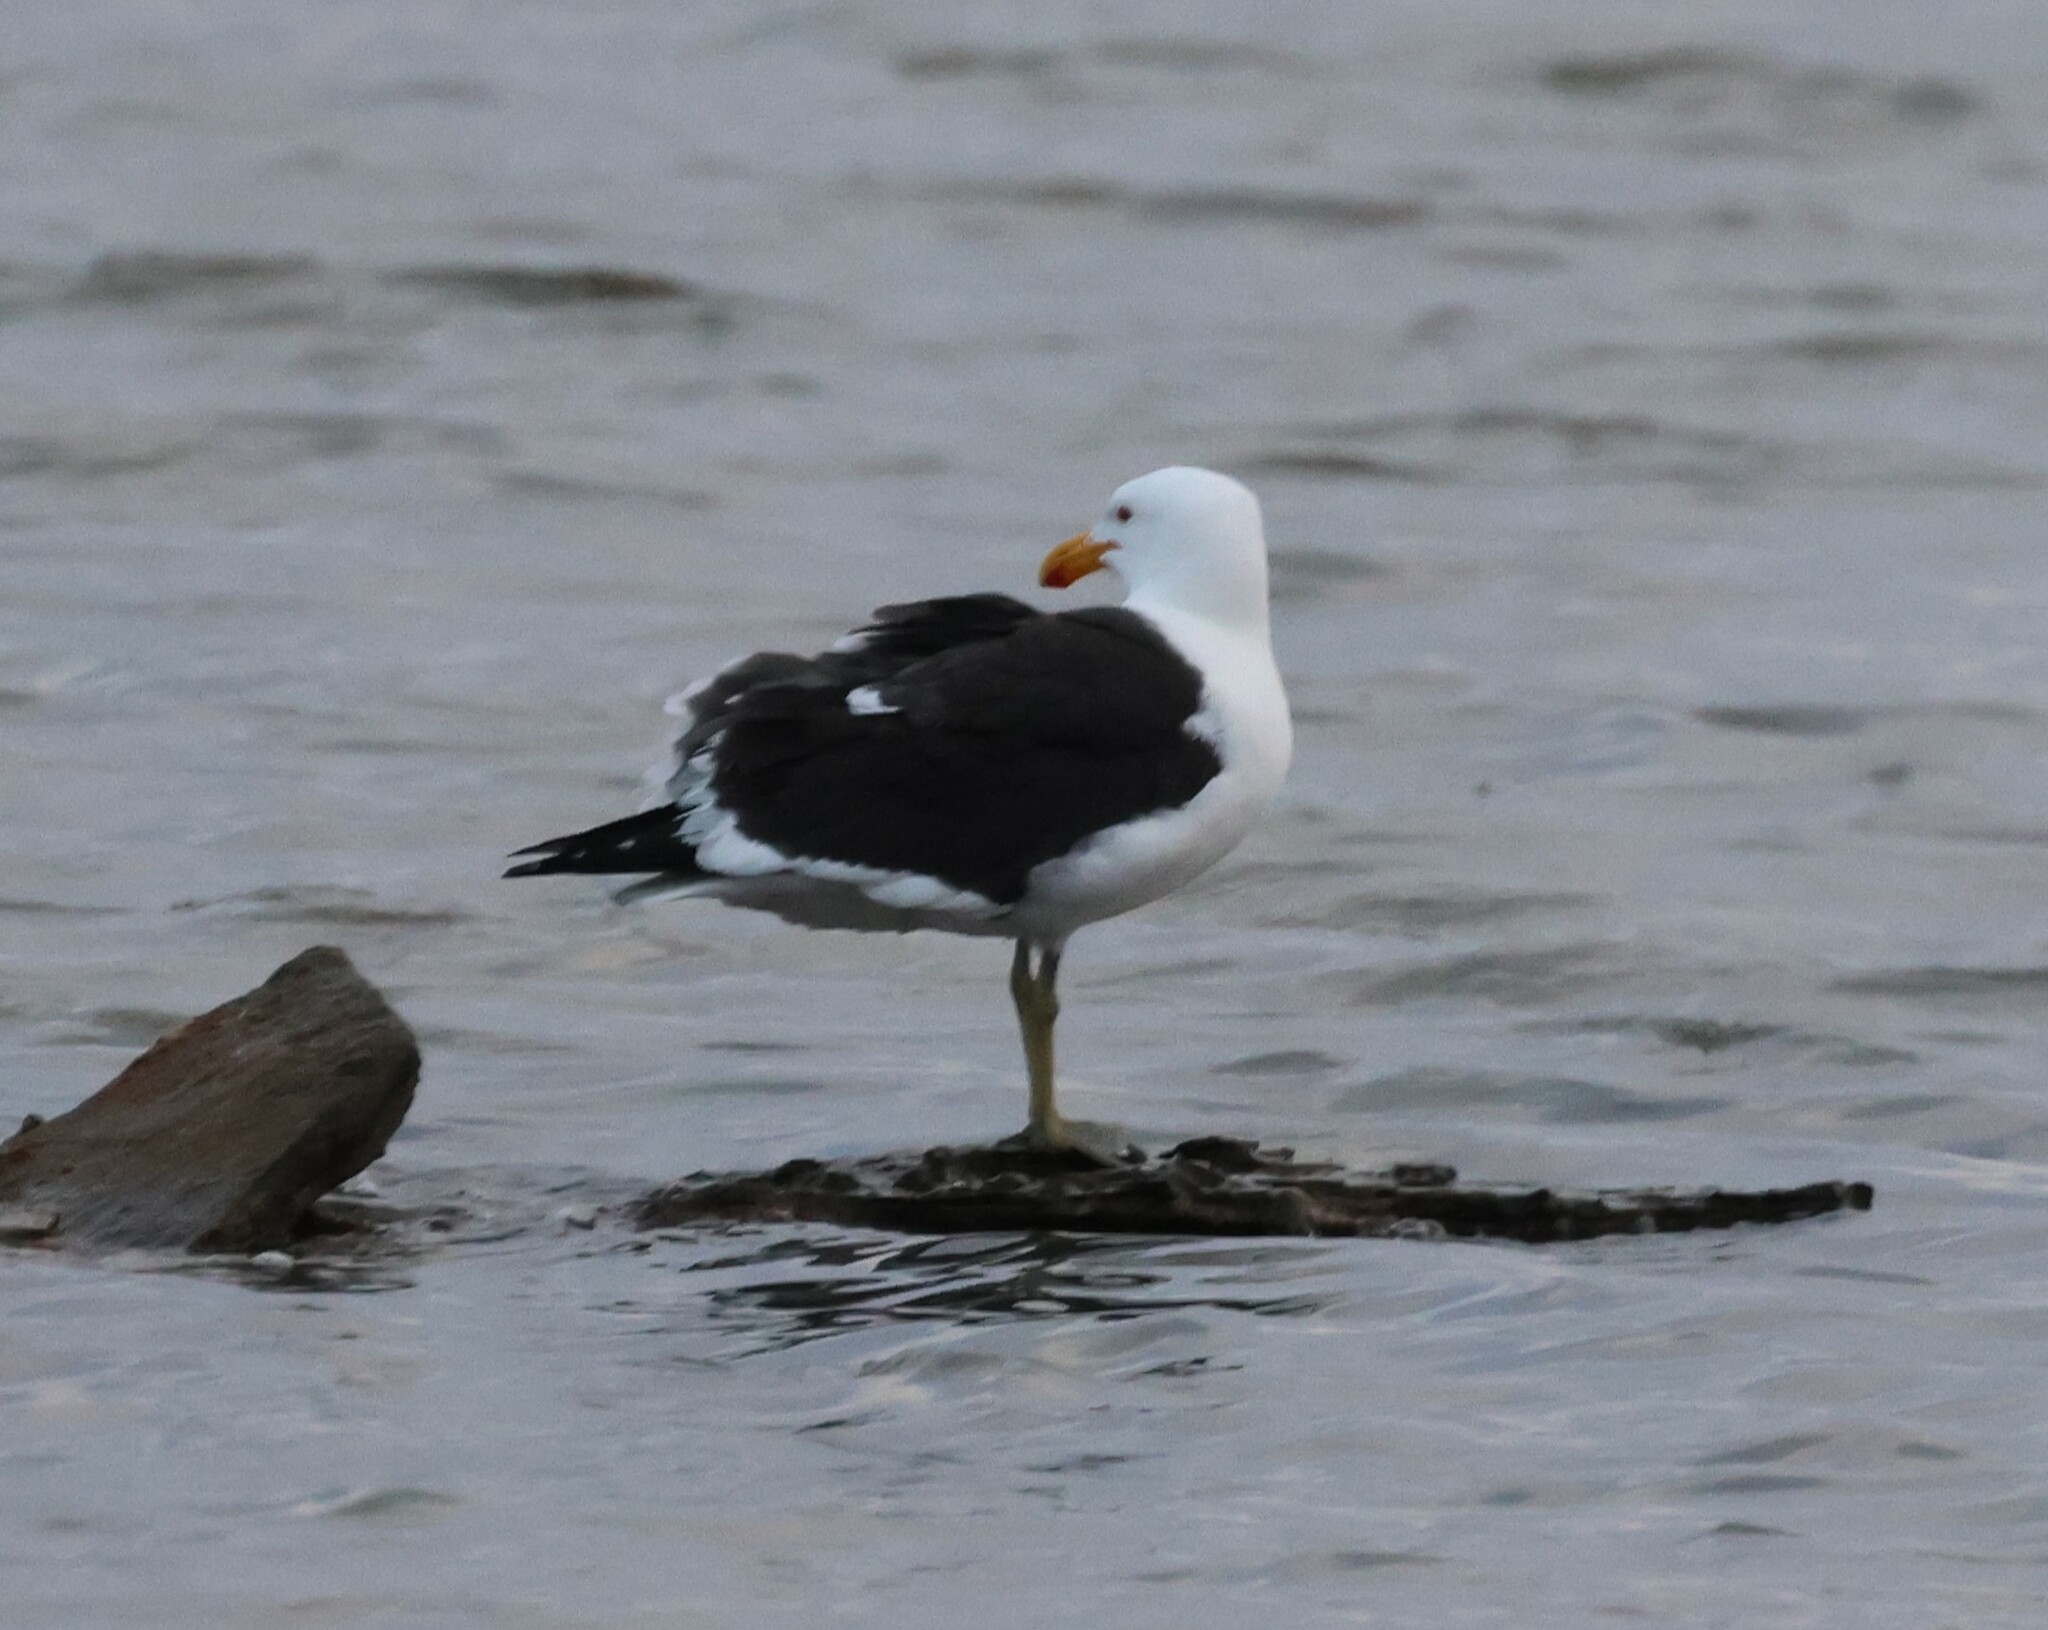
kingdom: Animalia
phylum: Chordata
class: Aves
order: Charadriiformes
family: Laridae
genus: Larus
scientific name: Larus dominicanus
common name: Kelp gull
